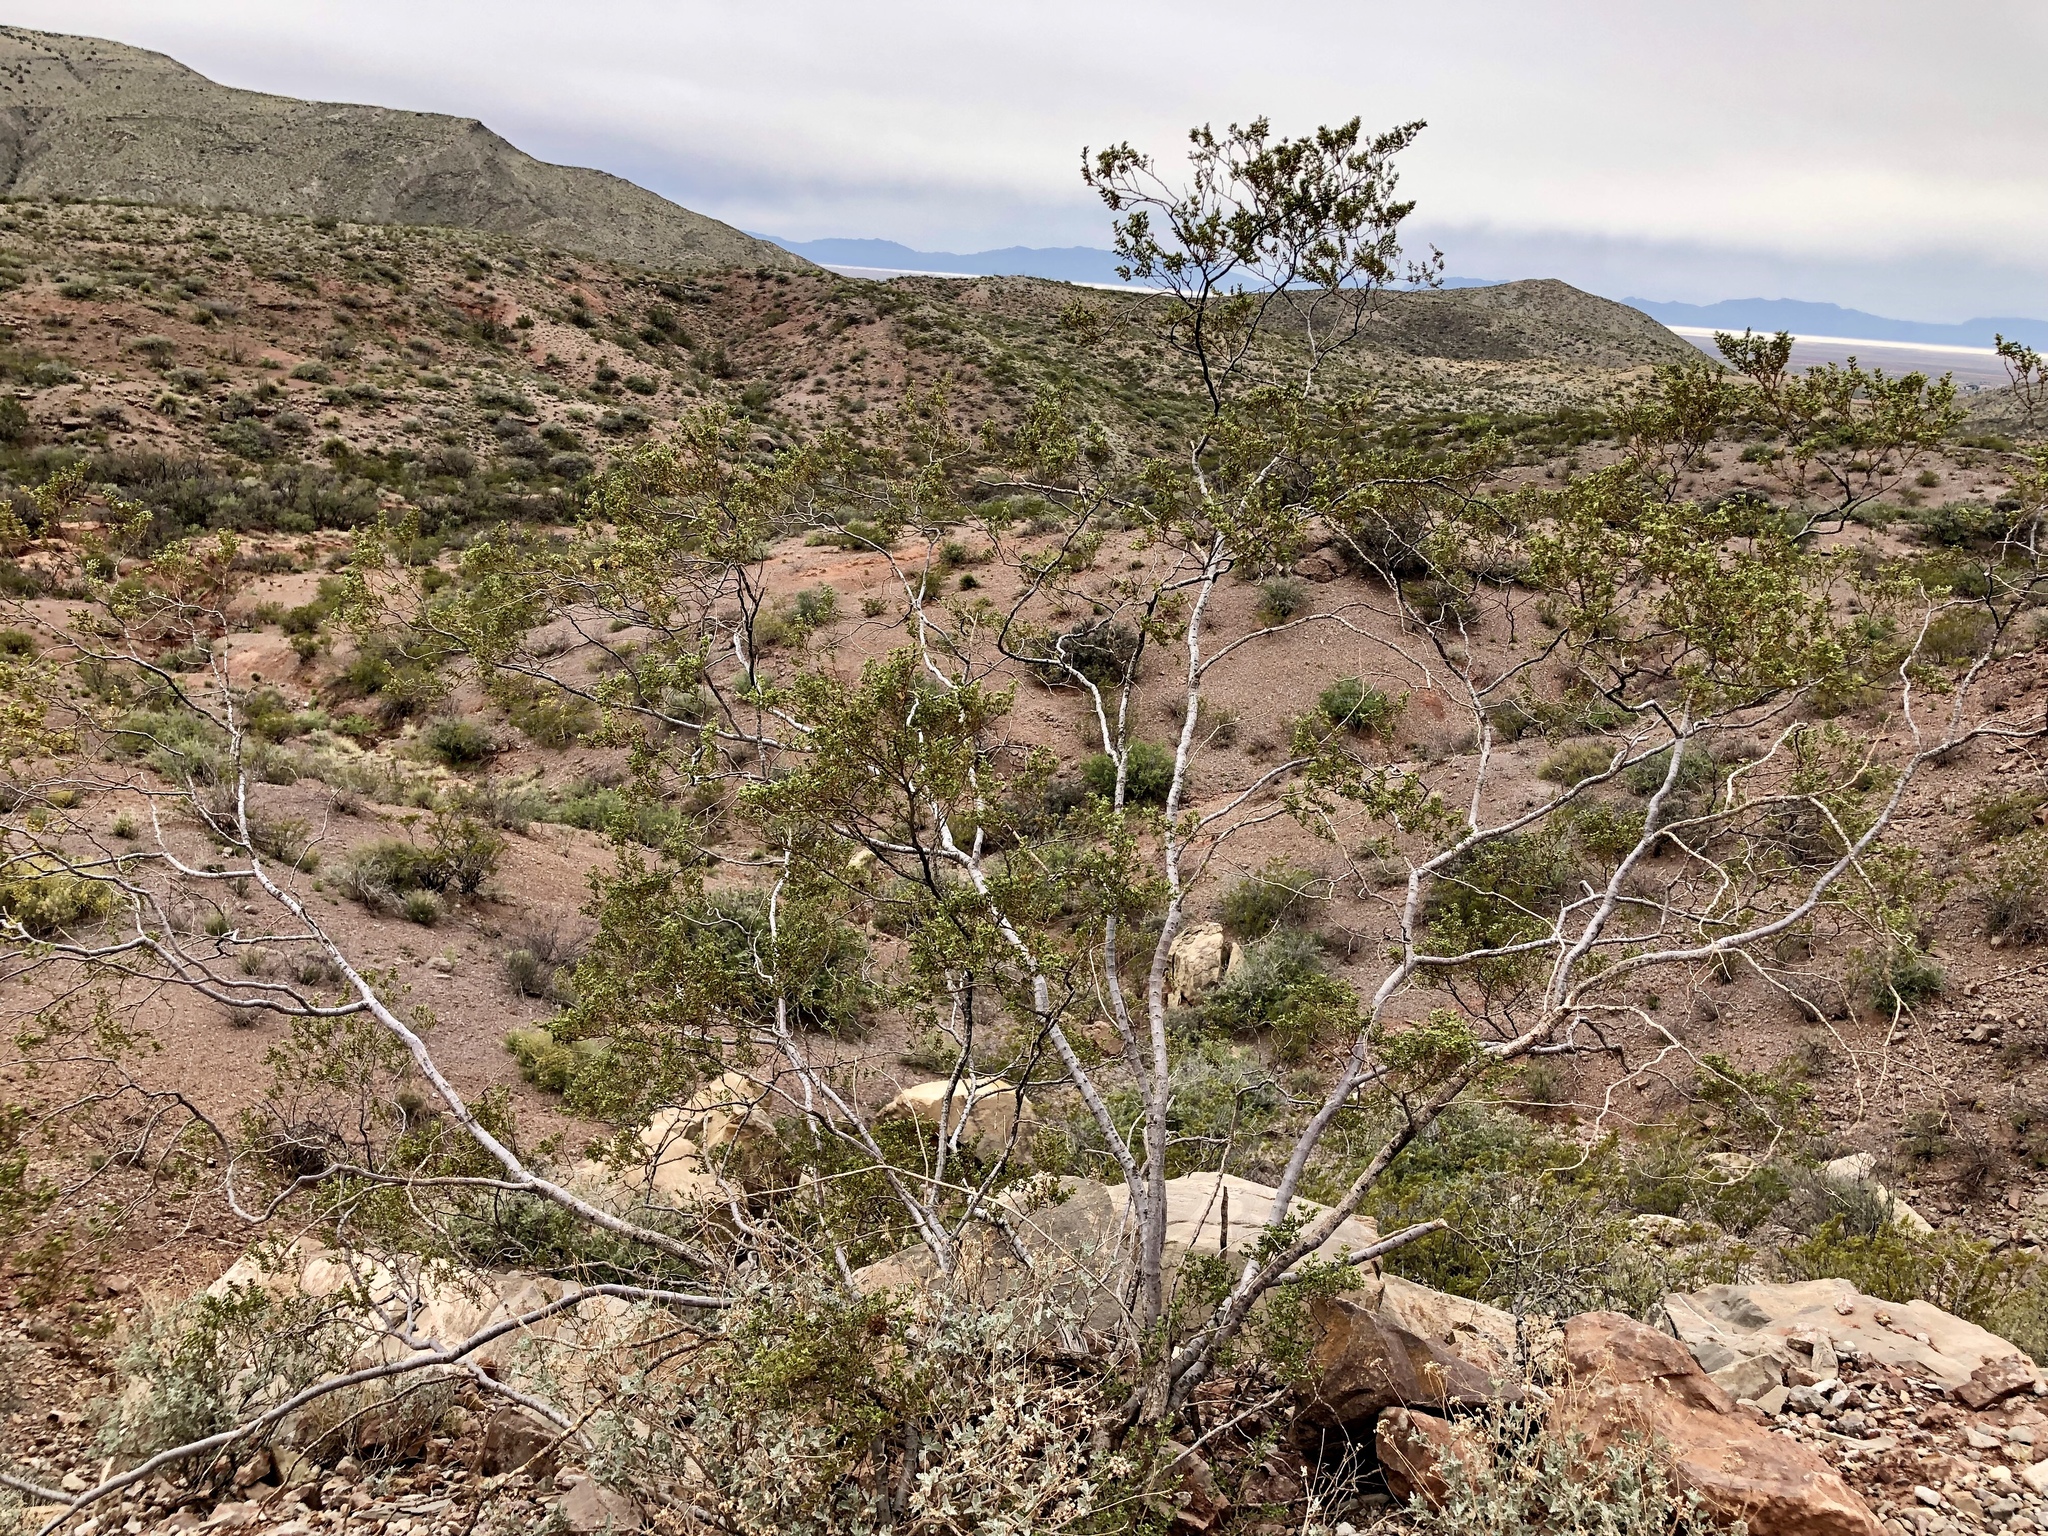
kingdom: Plantae
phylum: Tracheophyta
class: Magnoliopsida
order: Zygophyllales
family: Zygophyllaceae
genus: Larrea
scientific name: Larrea tridentata
